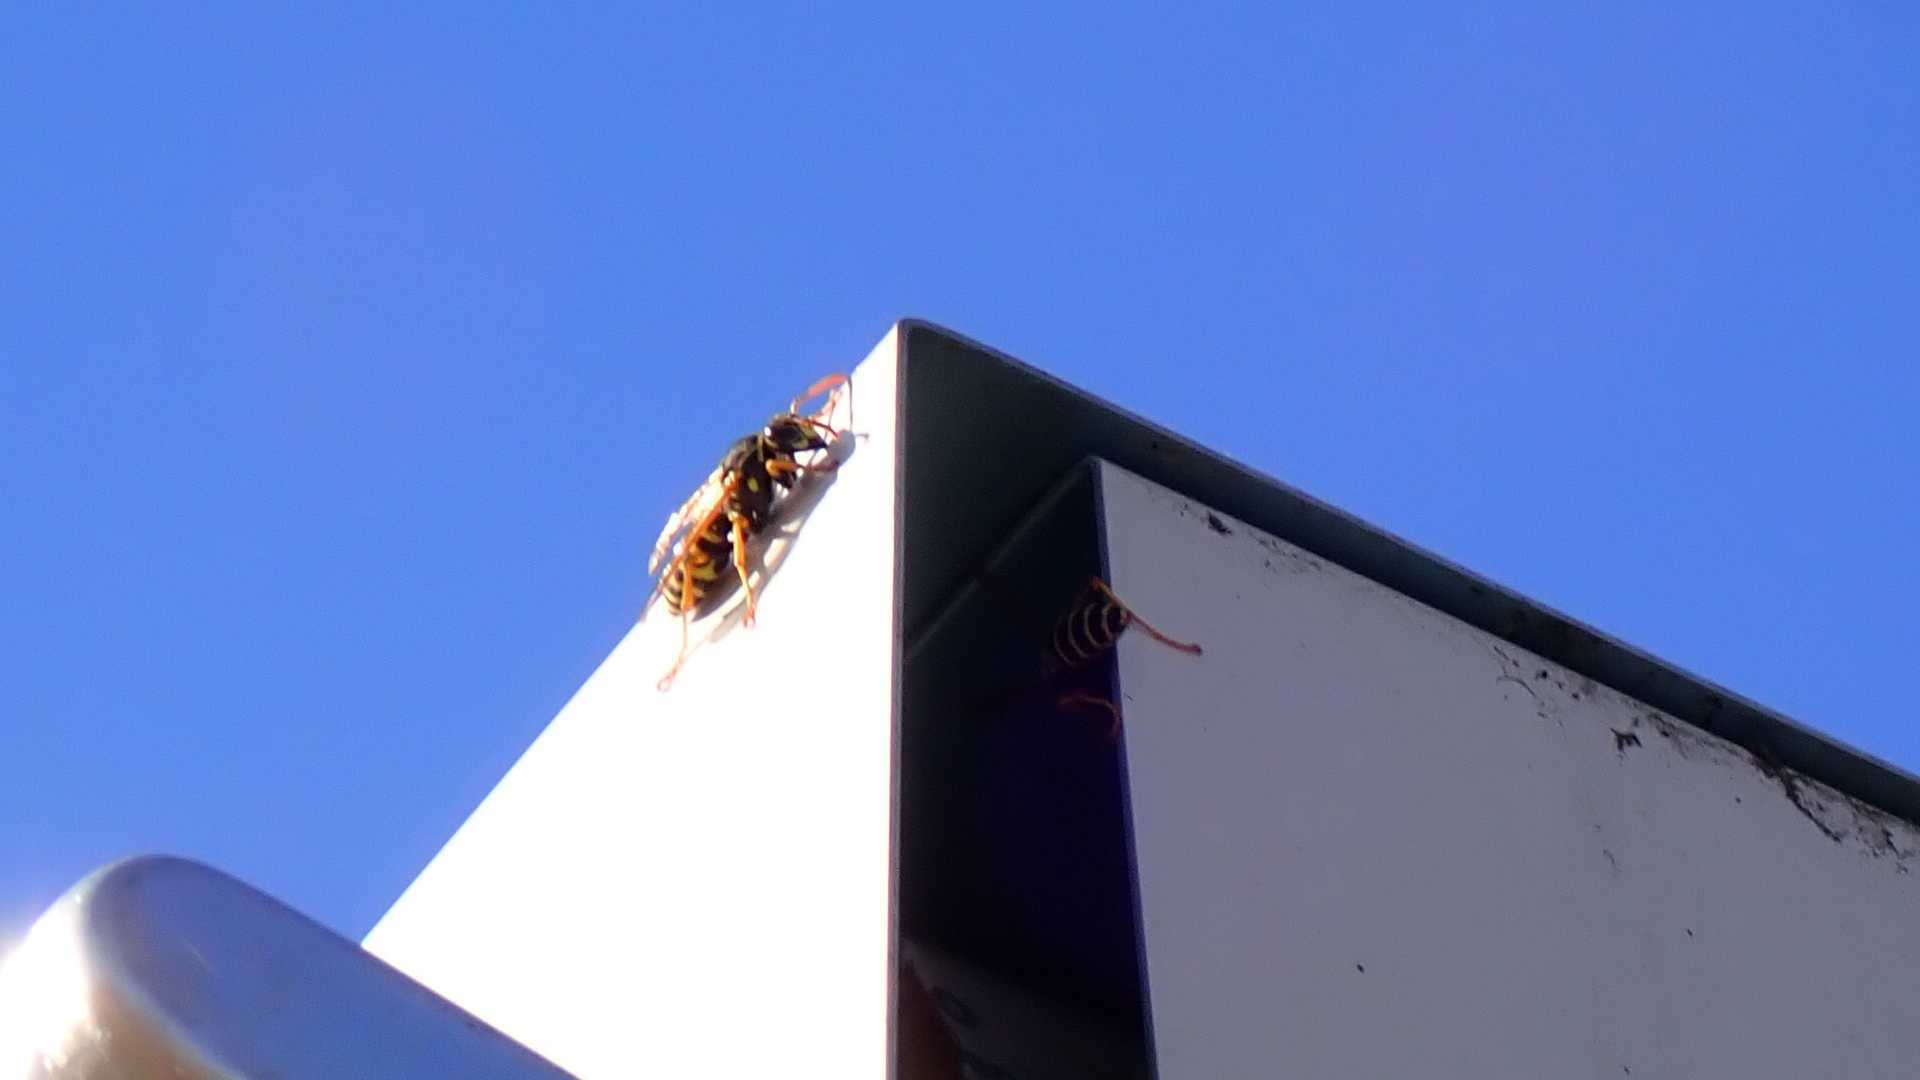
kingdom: Animalia
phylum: Arthropoda
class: Insecta
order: Hymenoptera
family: Eumenidae
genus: Polistes
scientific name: Polistes dominula
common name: Paper wasp
